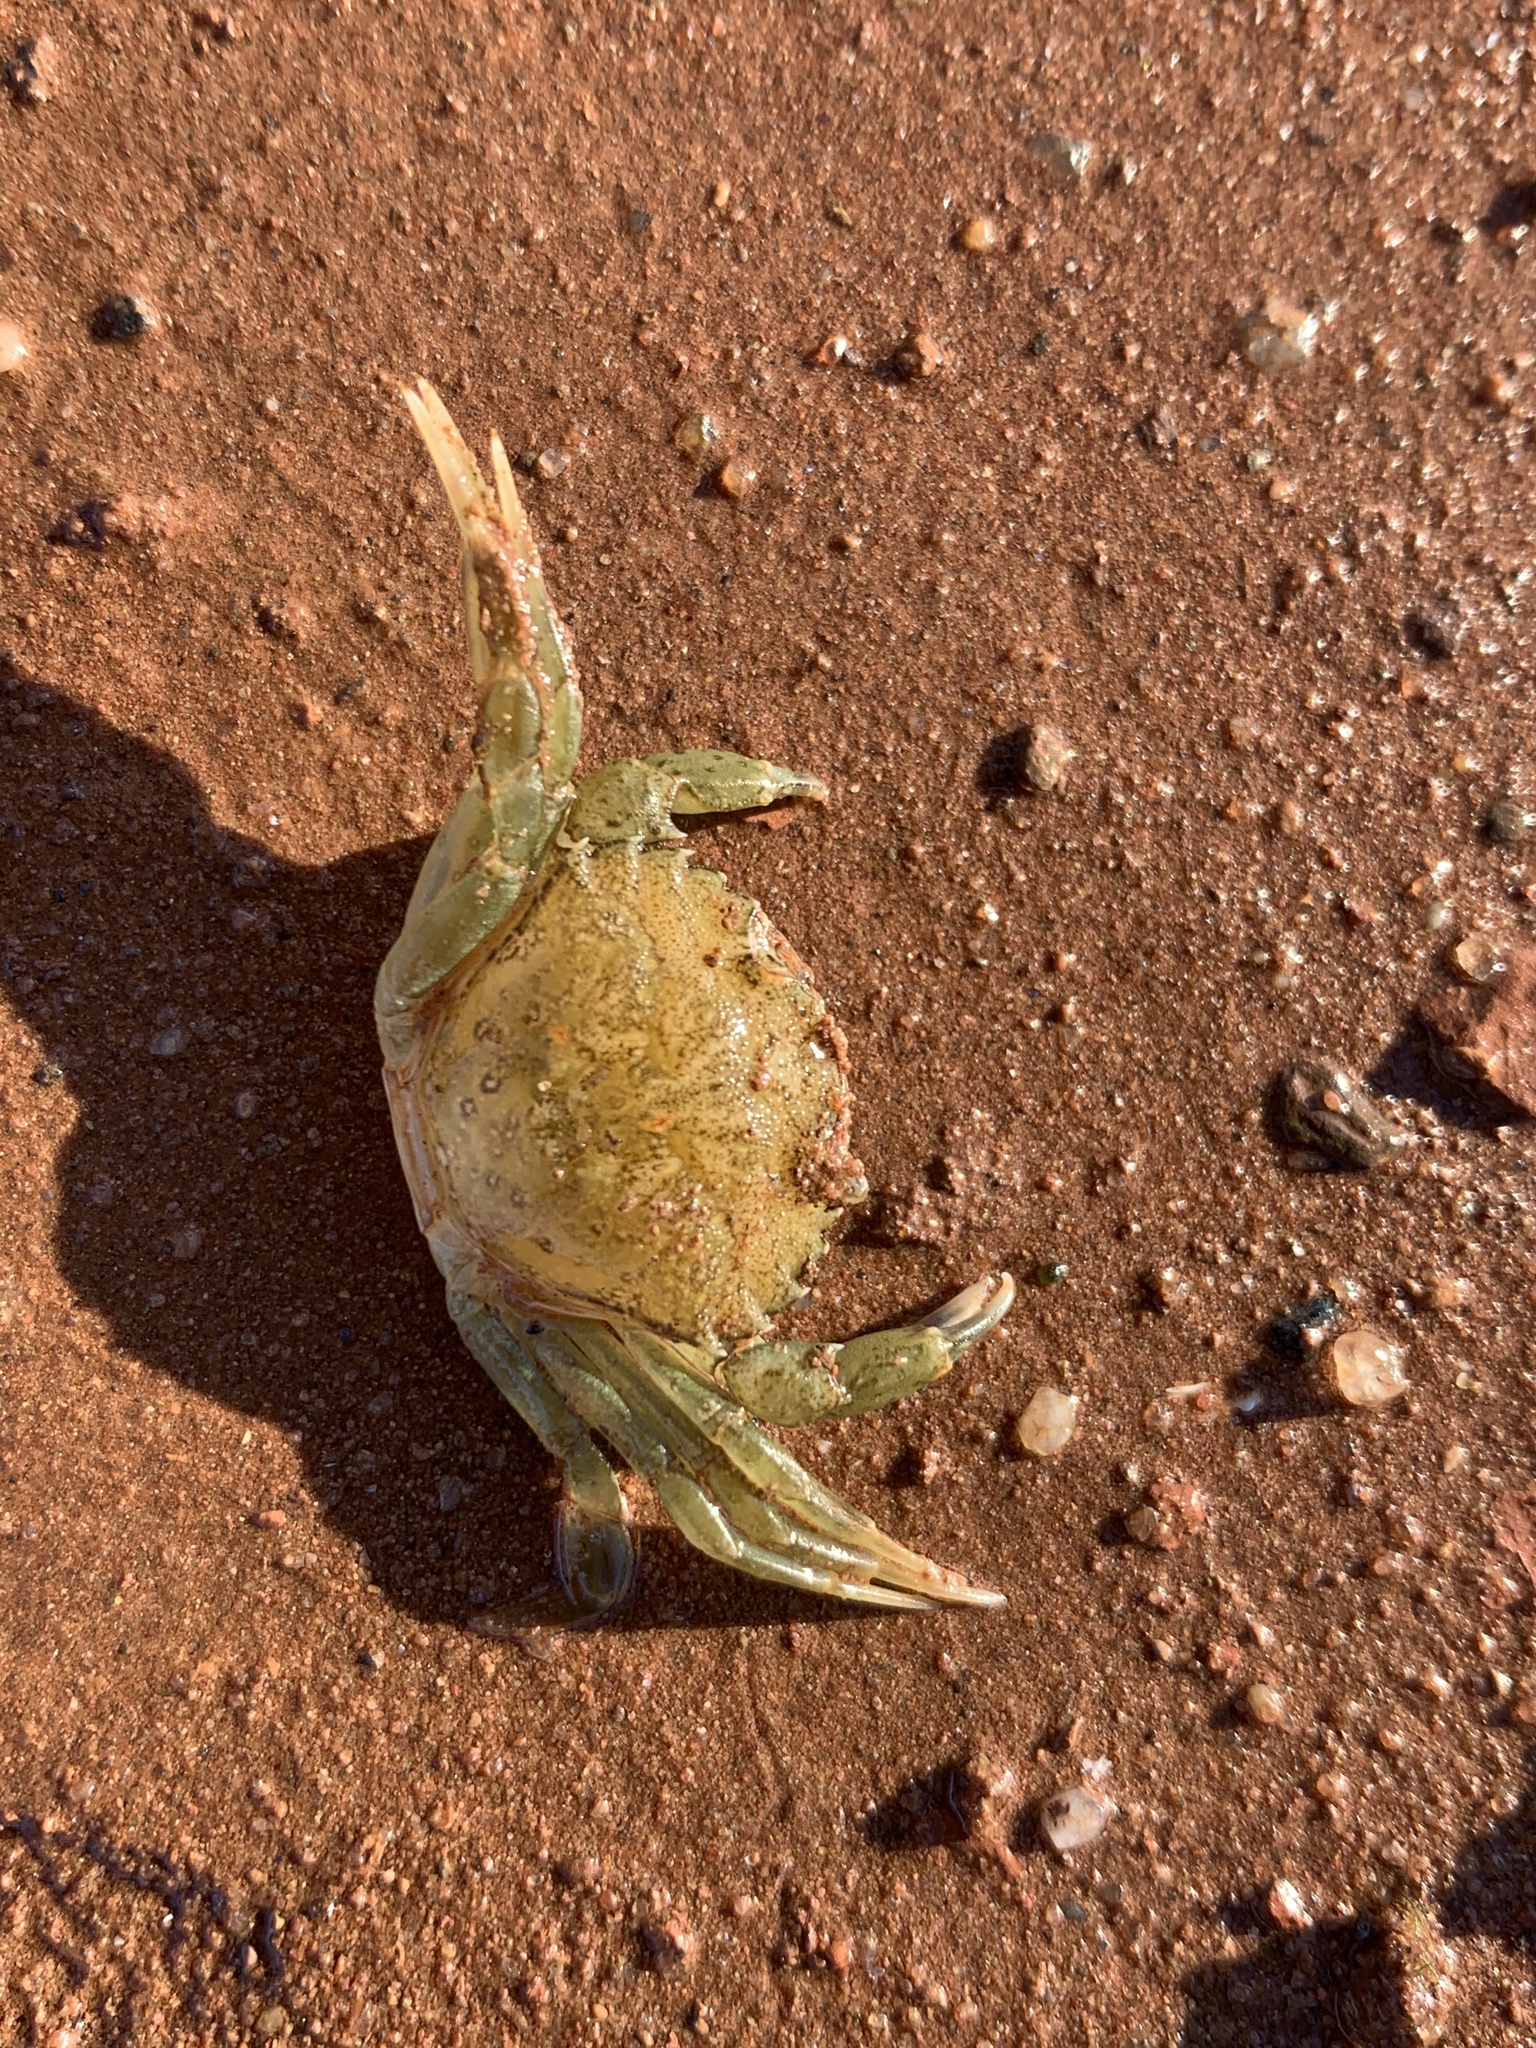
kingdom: Animalia
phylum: Arthropoda
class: Malacostraca
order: Decapoda
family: Carcinidae
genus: Carcinus
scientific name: Carcinus maenas
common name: European green crab
